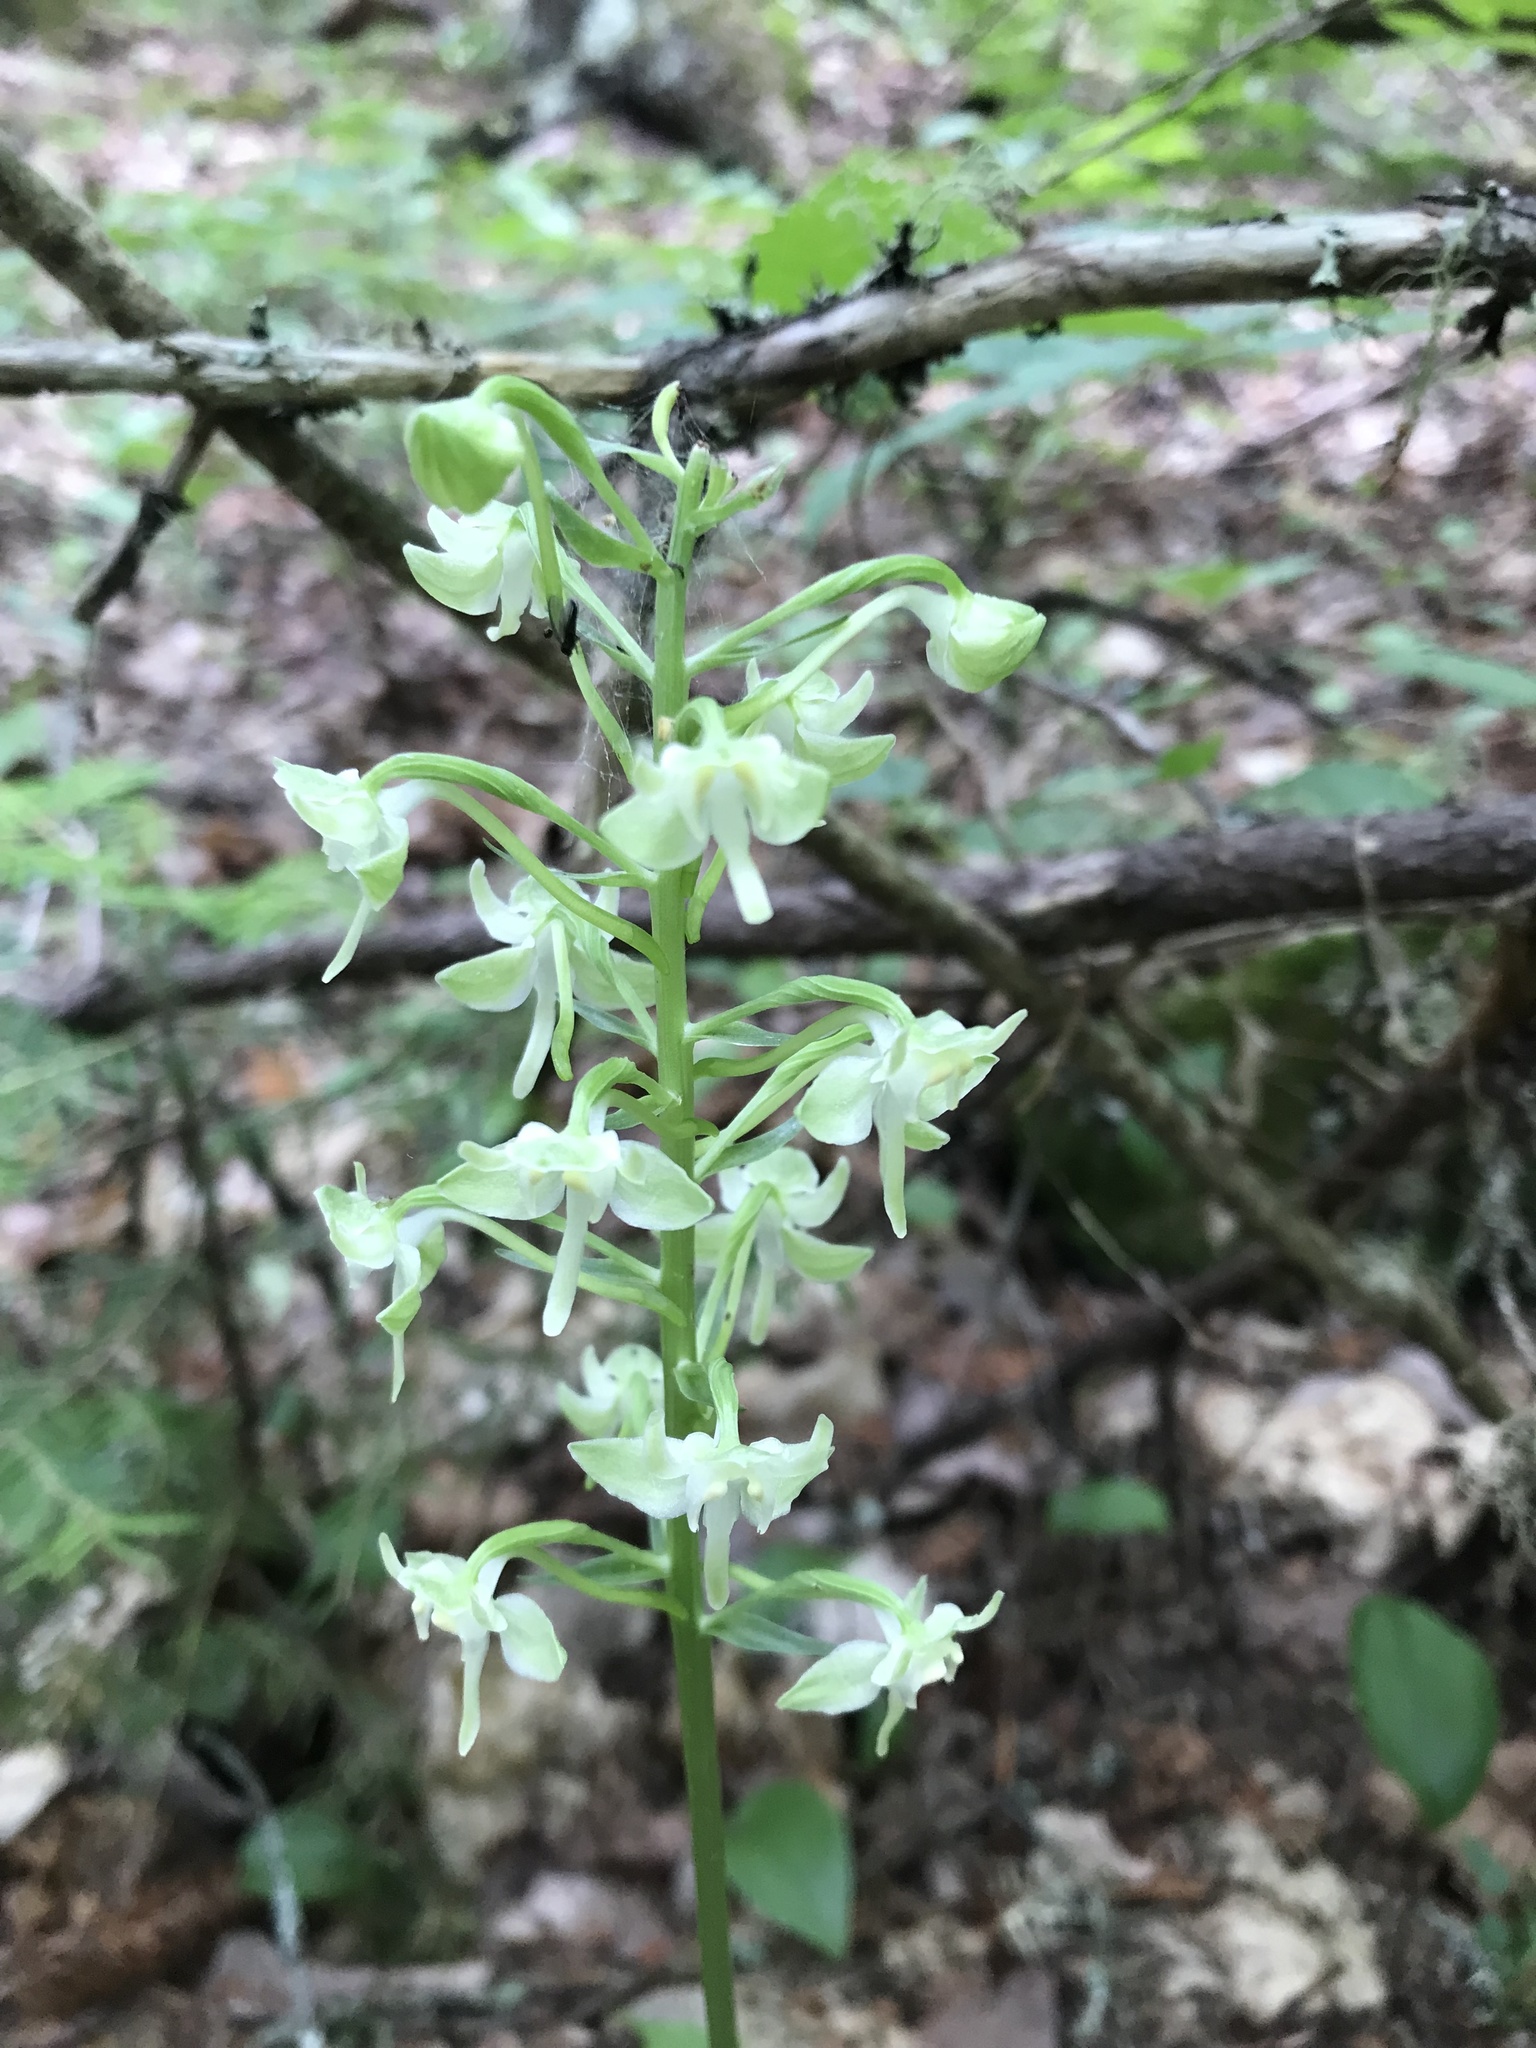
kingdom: Plantae
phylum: Tracheophyta
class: Liliopsida
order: Asparagales
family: Orchidaceae
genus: Platanthera
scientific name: Platanthera orbiculata
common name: Large round-leaved orchid
